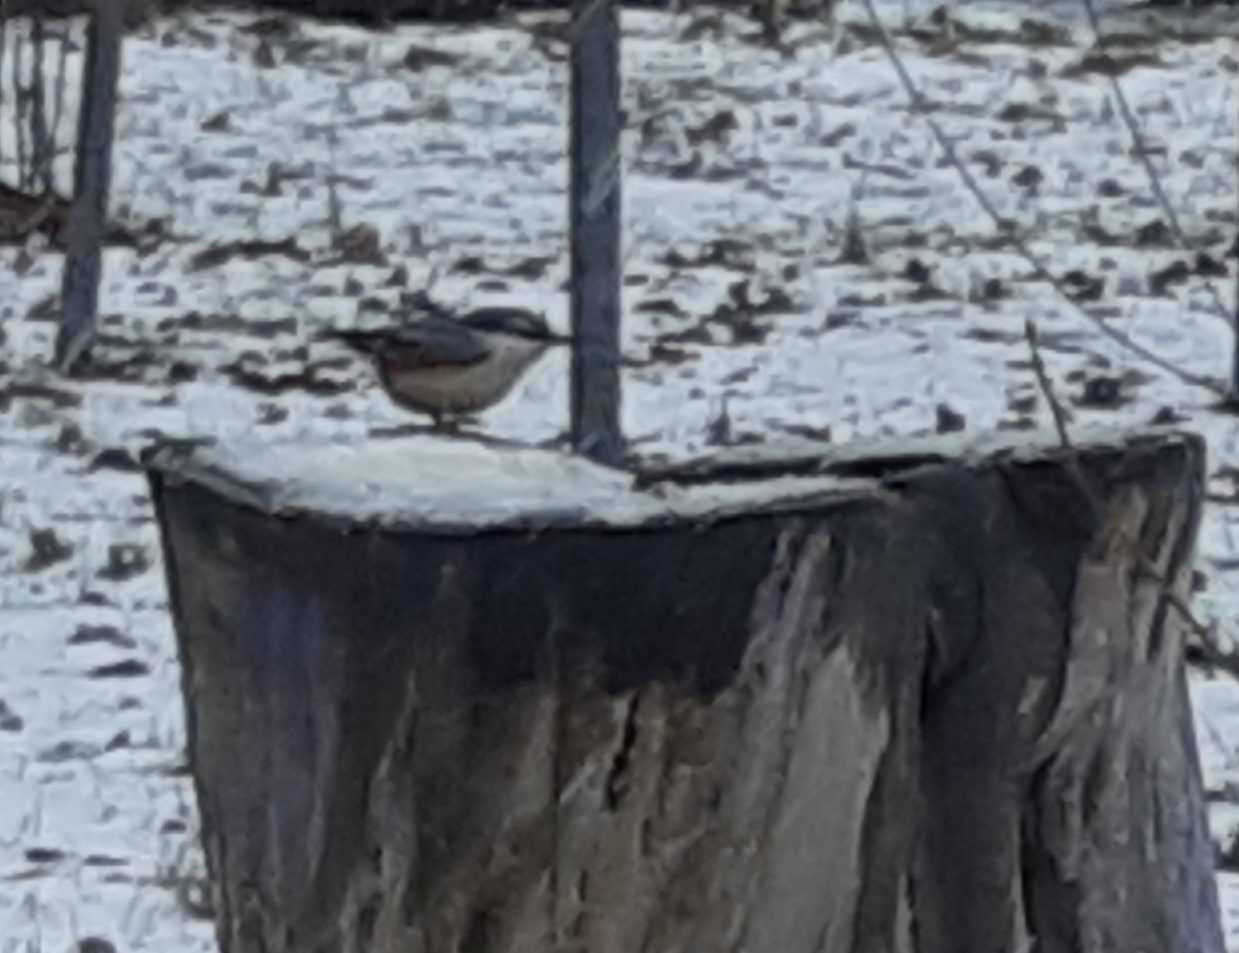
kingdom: Animalia
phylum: Chordata
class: Aves
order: Passeriformes
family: Sittidae
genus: Sitta
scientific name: Sitta europaea
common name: Eurasian nuthatch
